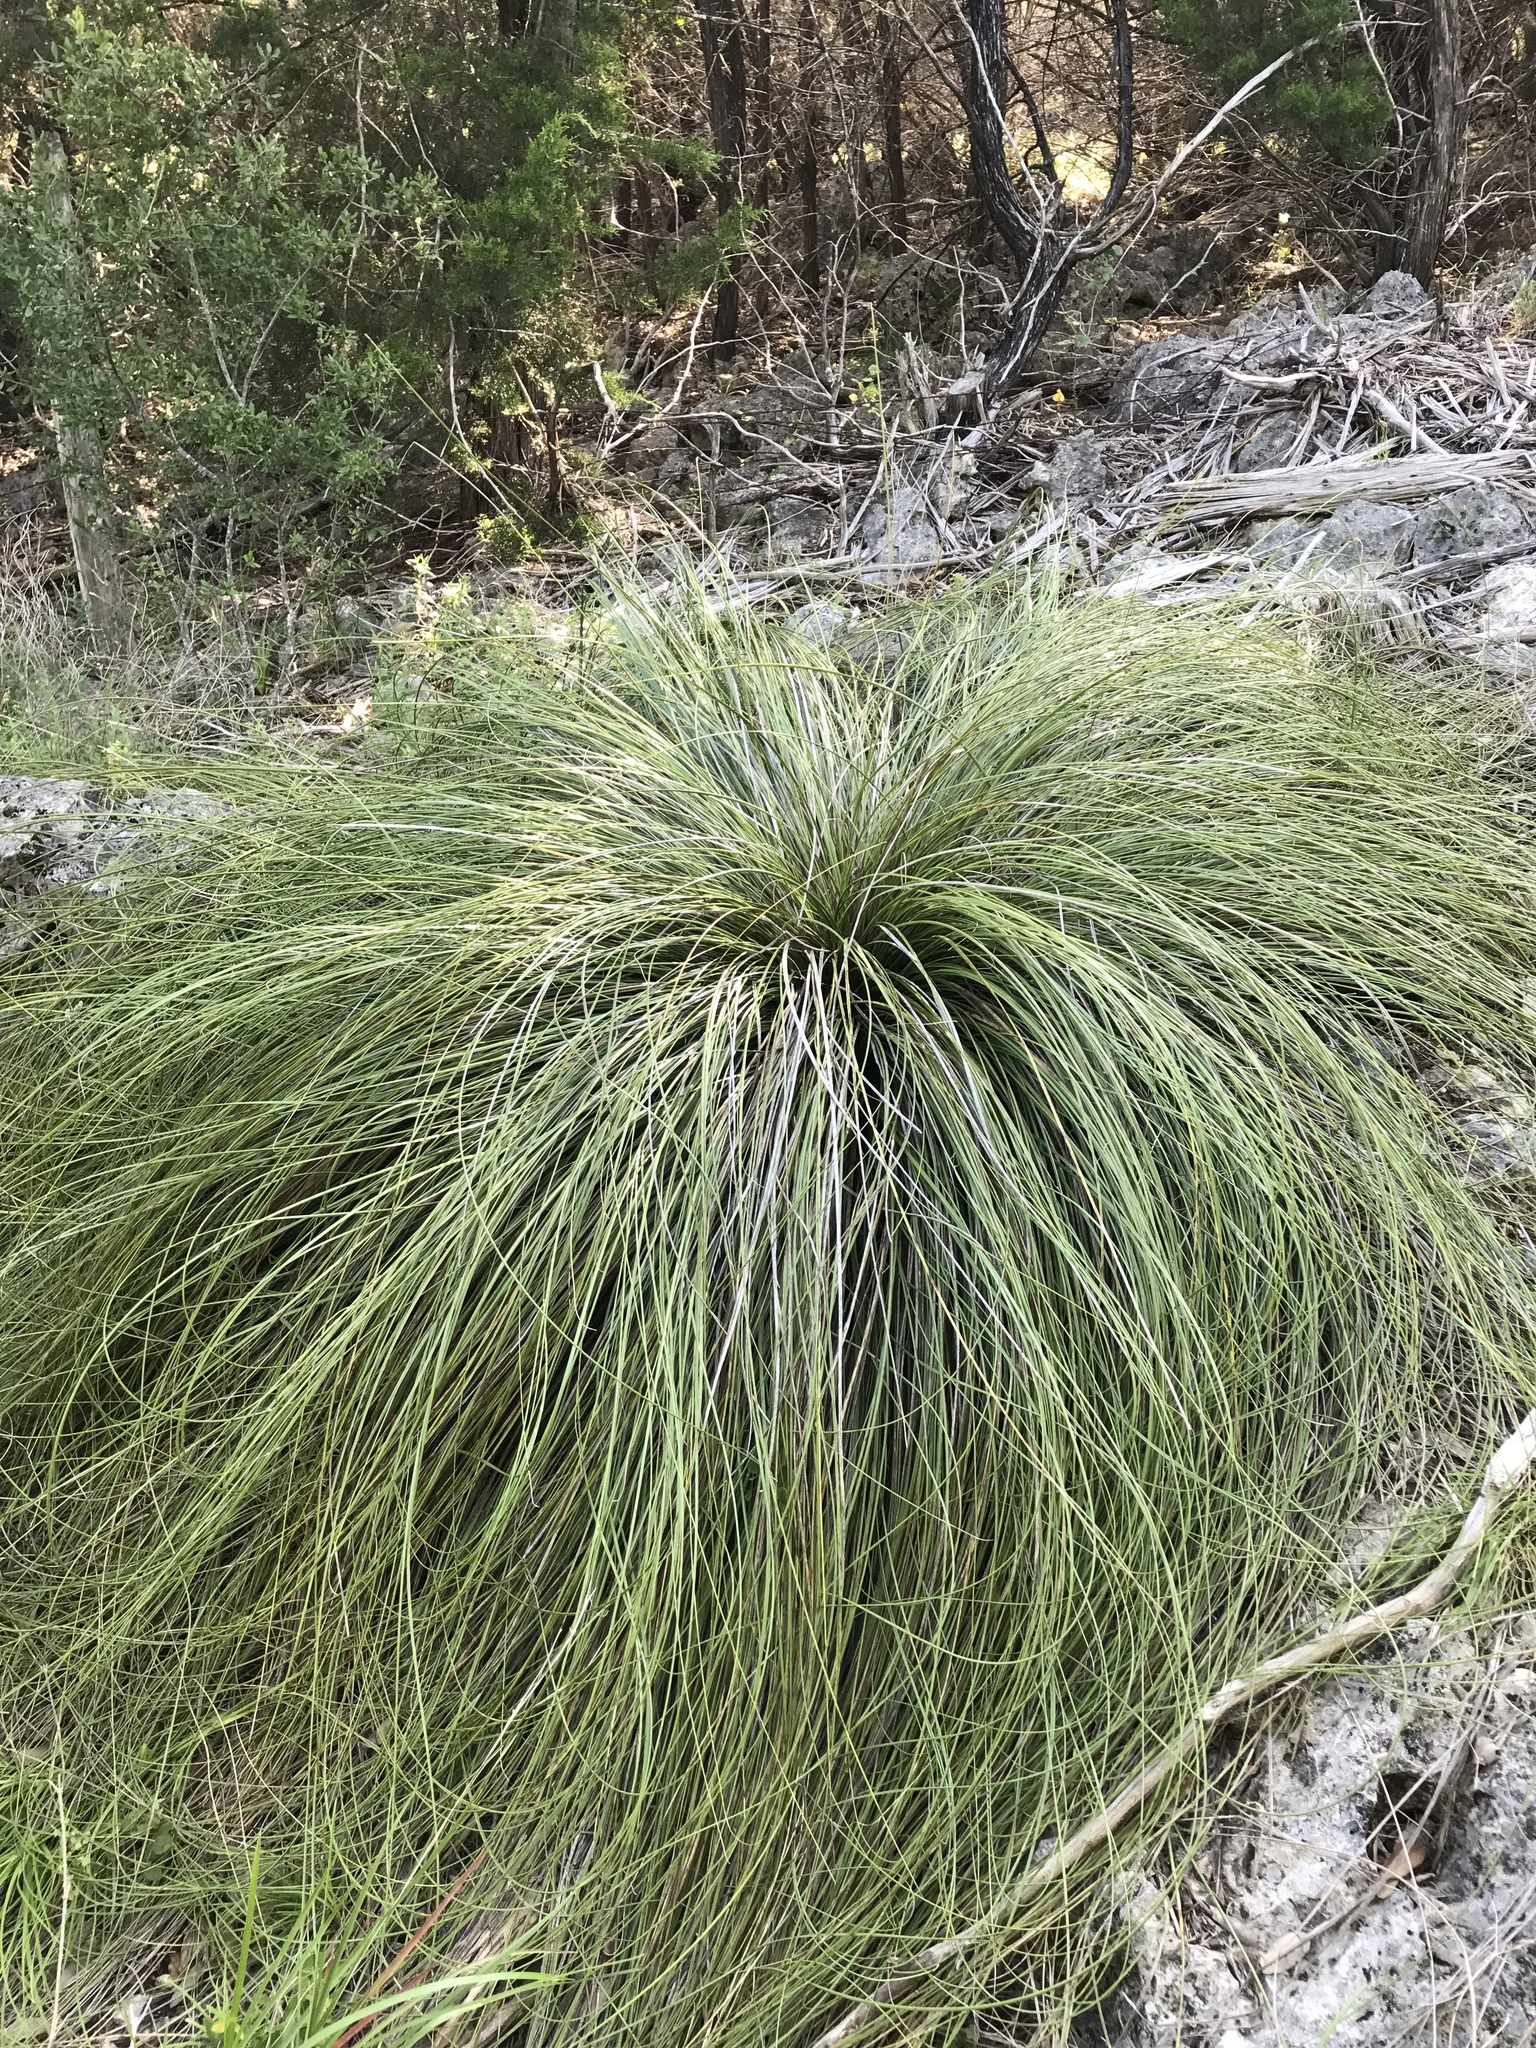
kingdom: Plantae
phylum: Tracheophyta
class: Liliopsida
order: Asparagales
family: Asparagaceae
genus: Nolina
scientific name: Nolina texana
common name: Texas sacahuiste
